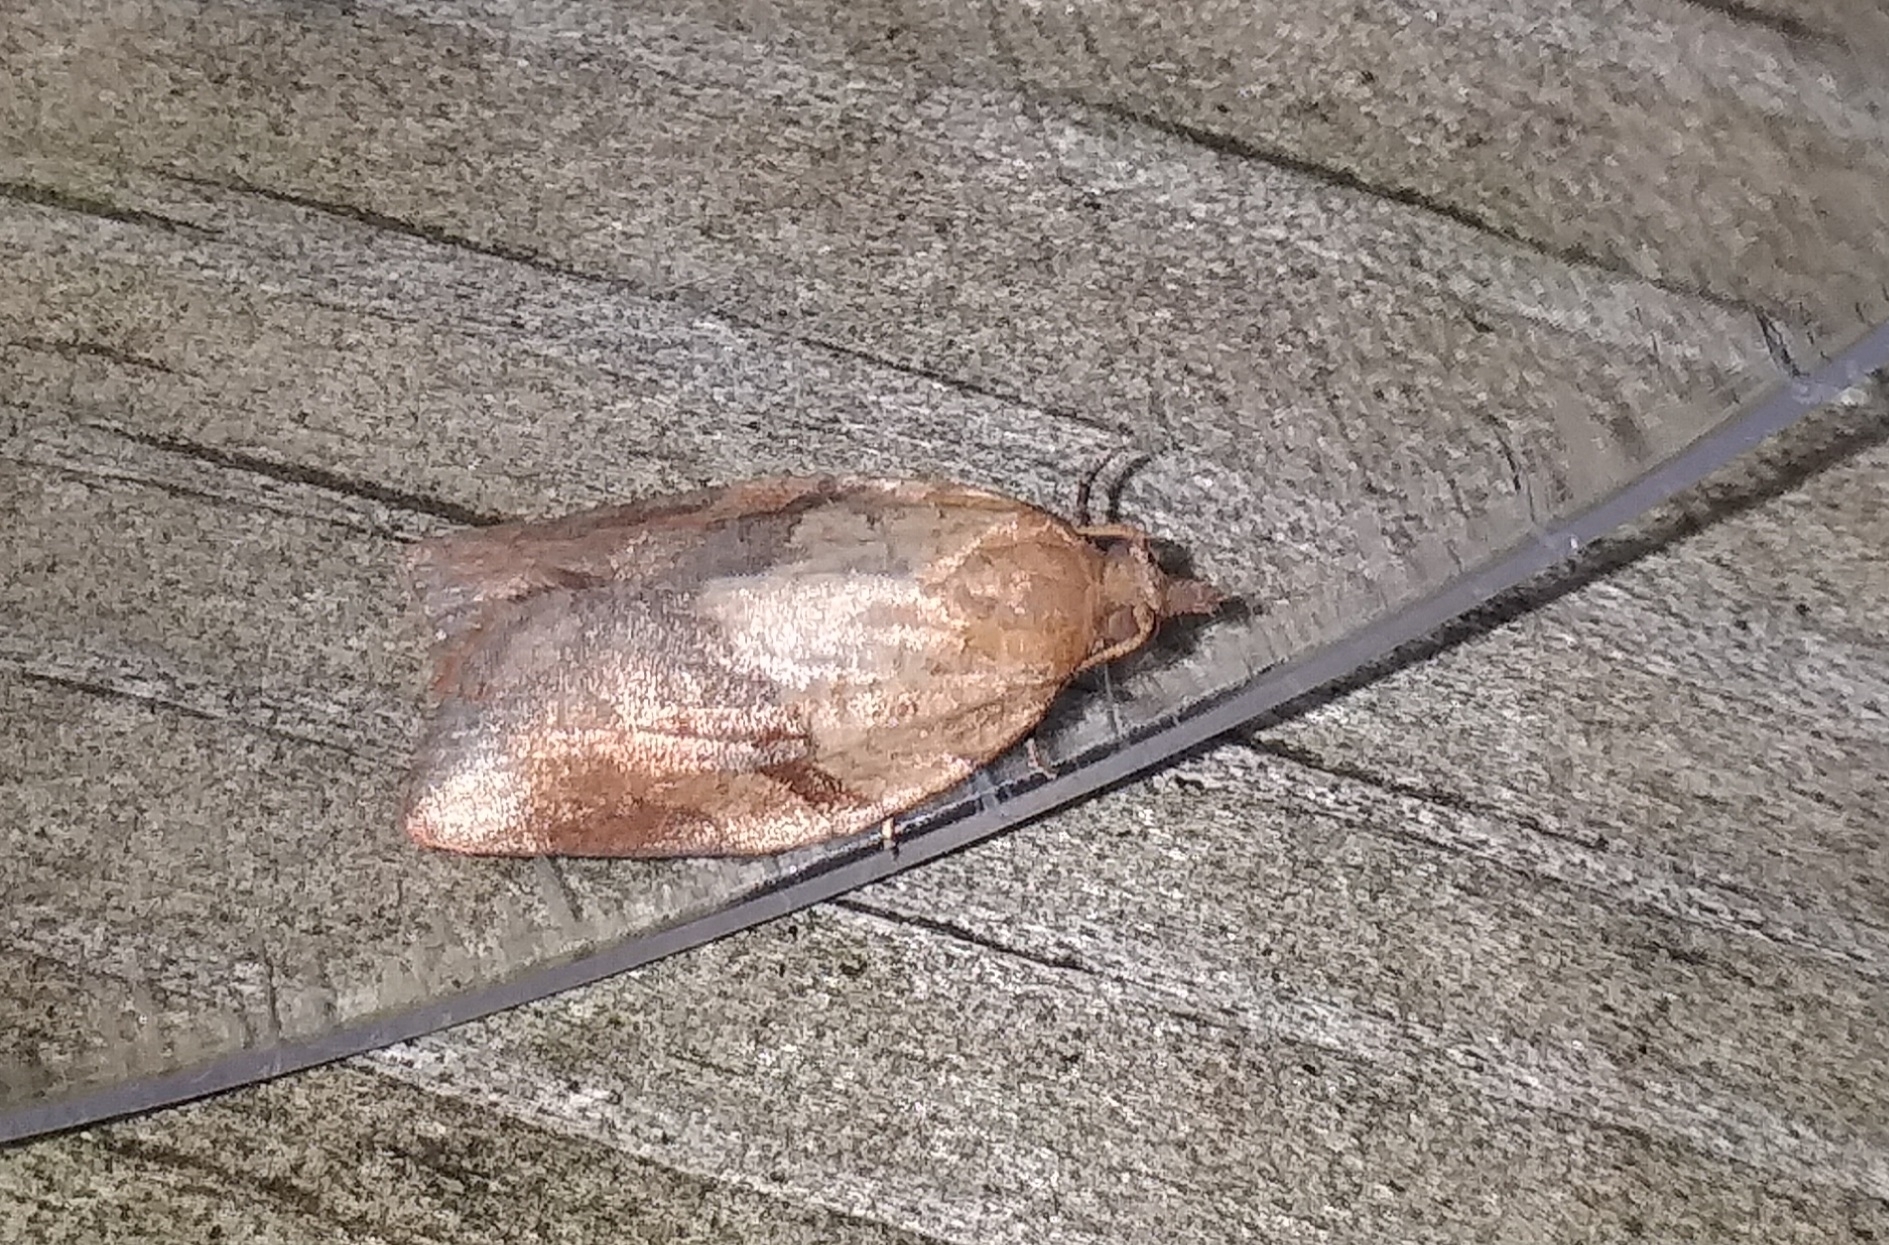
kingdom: Animalia
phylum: Arthropoda
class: Insecta
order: Lepidoptera
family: Tortricidae
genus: Epiphyas
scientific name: Epiphyas postvittana
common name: Light brown apple moth
